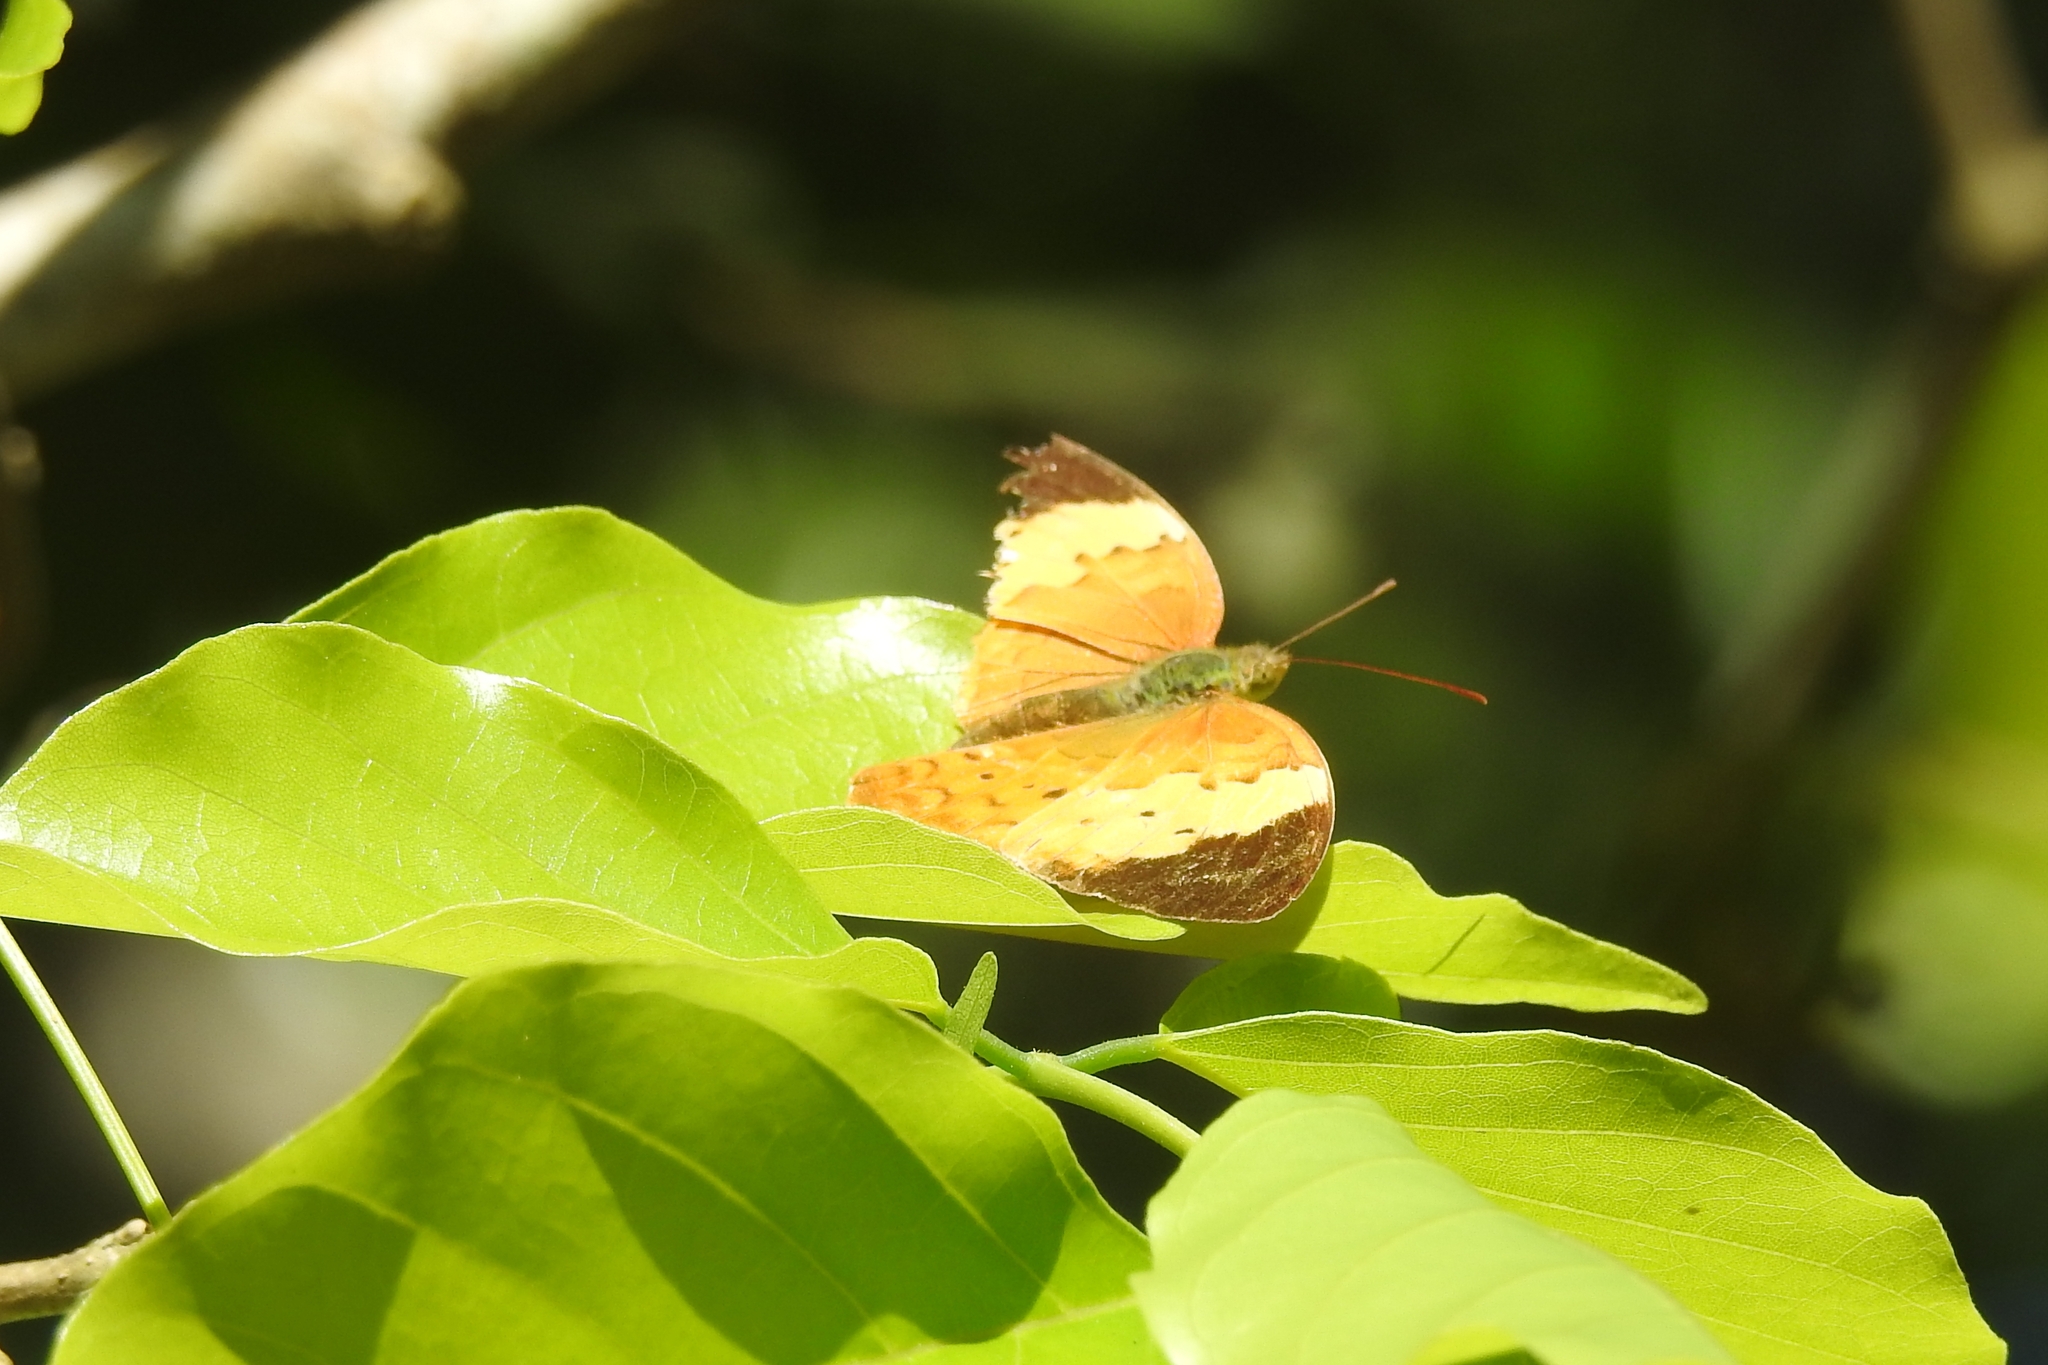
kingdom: Animalia
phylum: Arthropoda
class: Insecta
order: Lepidoptera
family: Nymphalidae
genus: Cupha
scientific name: Cupha erymanthis
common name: Rustic
